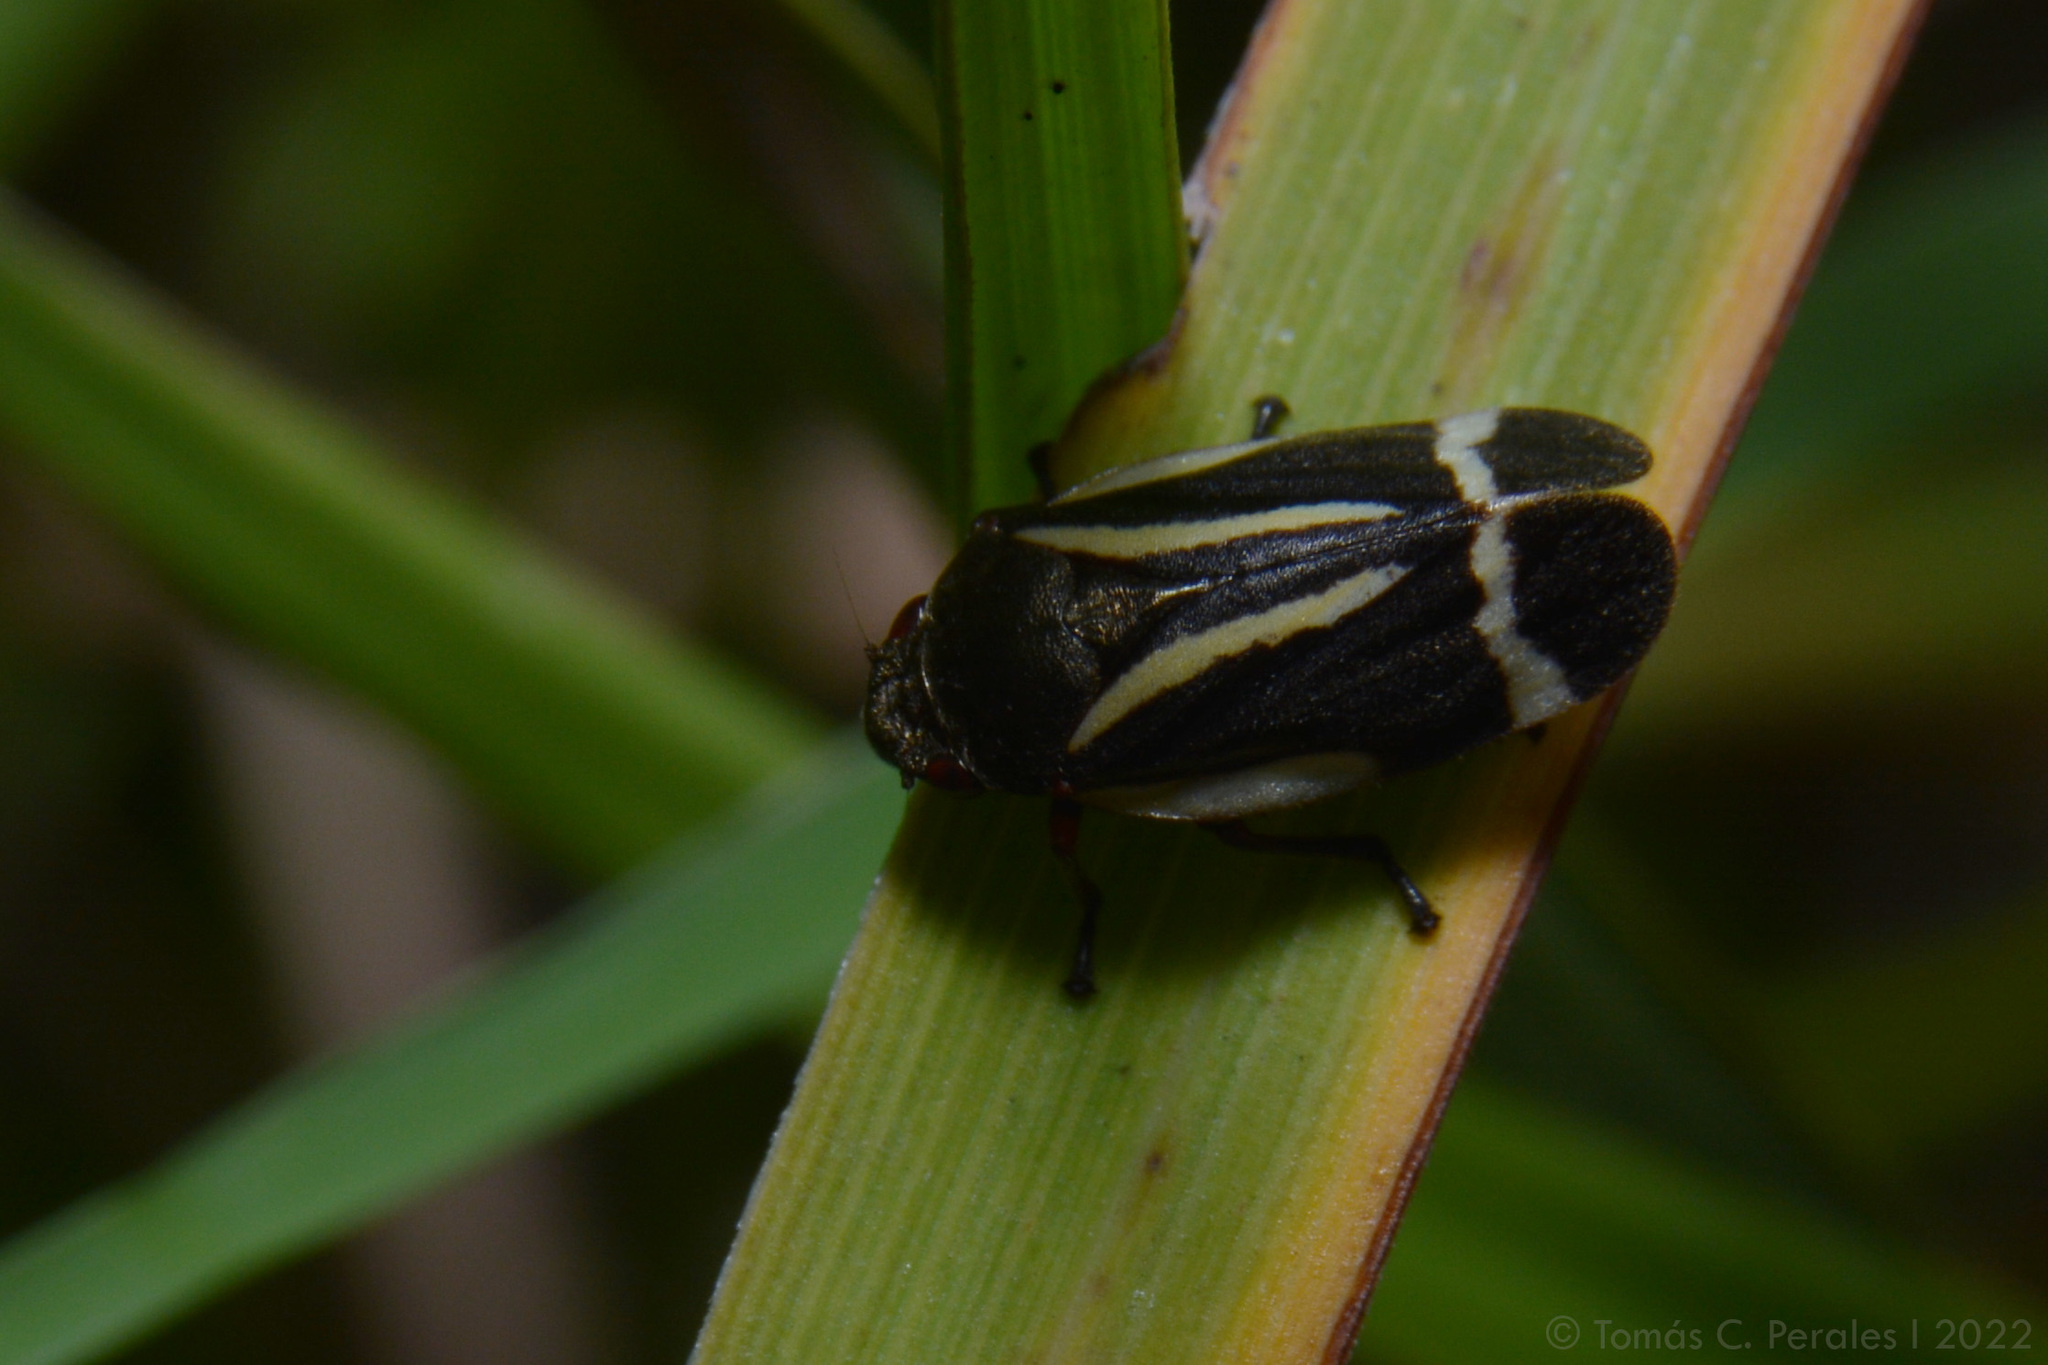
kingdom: Animalia
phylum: Arthropoda
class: Insecta
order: Hemiptera
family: Cercopidae
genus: Notozulia
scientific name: Notozulia entreriana
